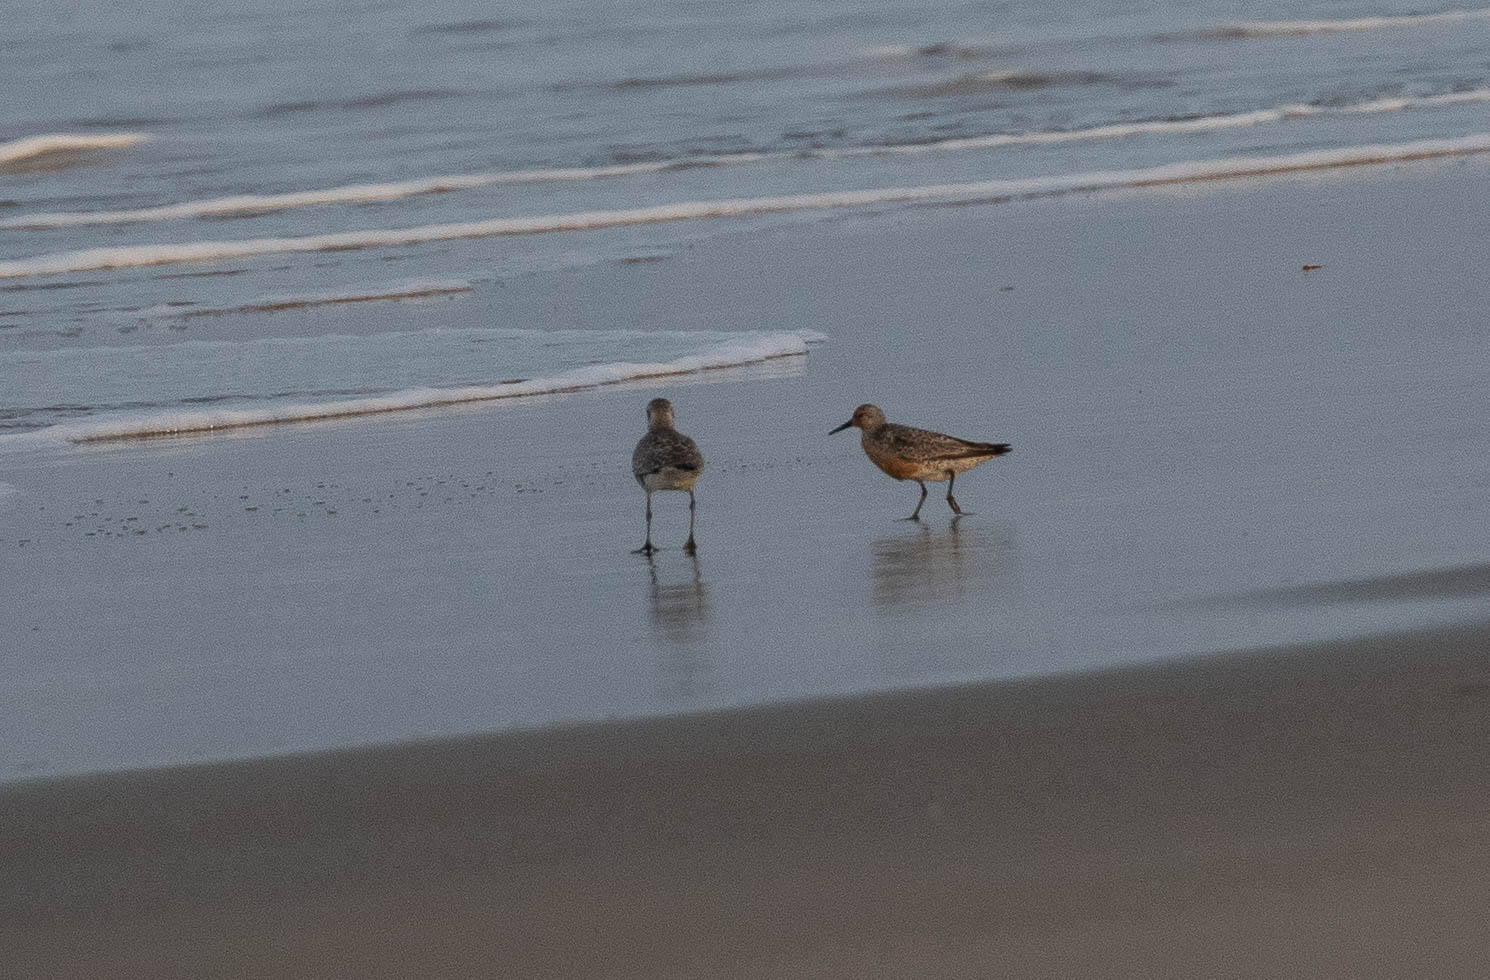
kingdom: Animalia
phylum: Chordata
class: Aves
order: Charadriiformes
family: Scolopacidae
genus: Calidris
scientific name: Calidris canutus
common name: Red knot
